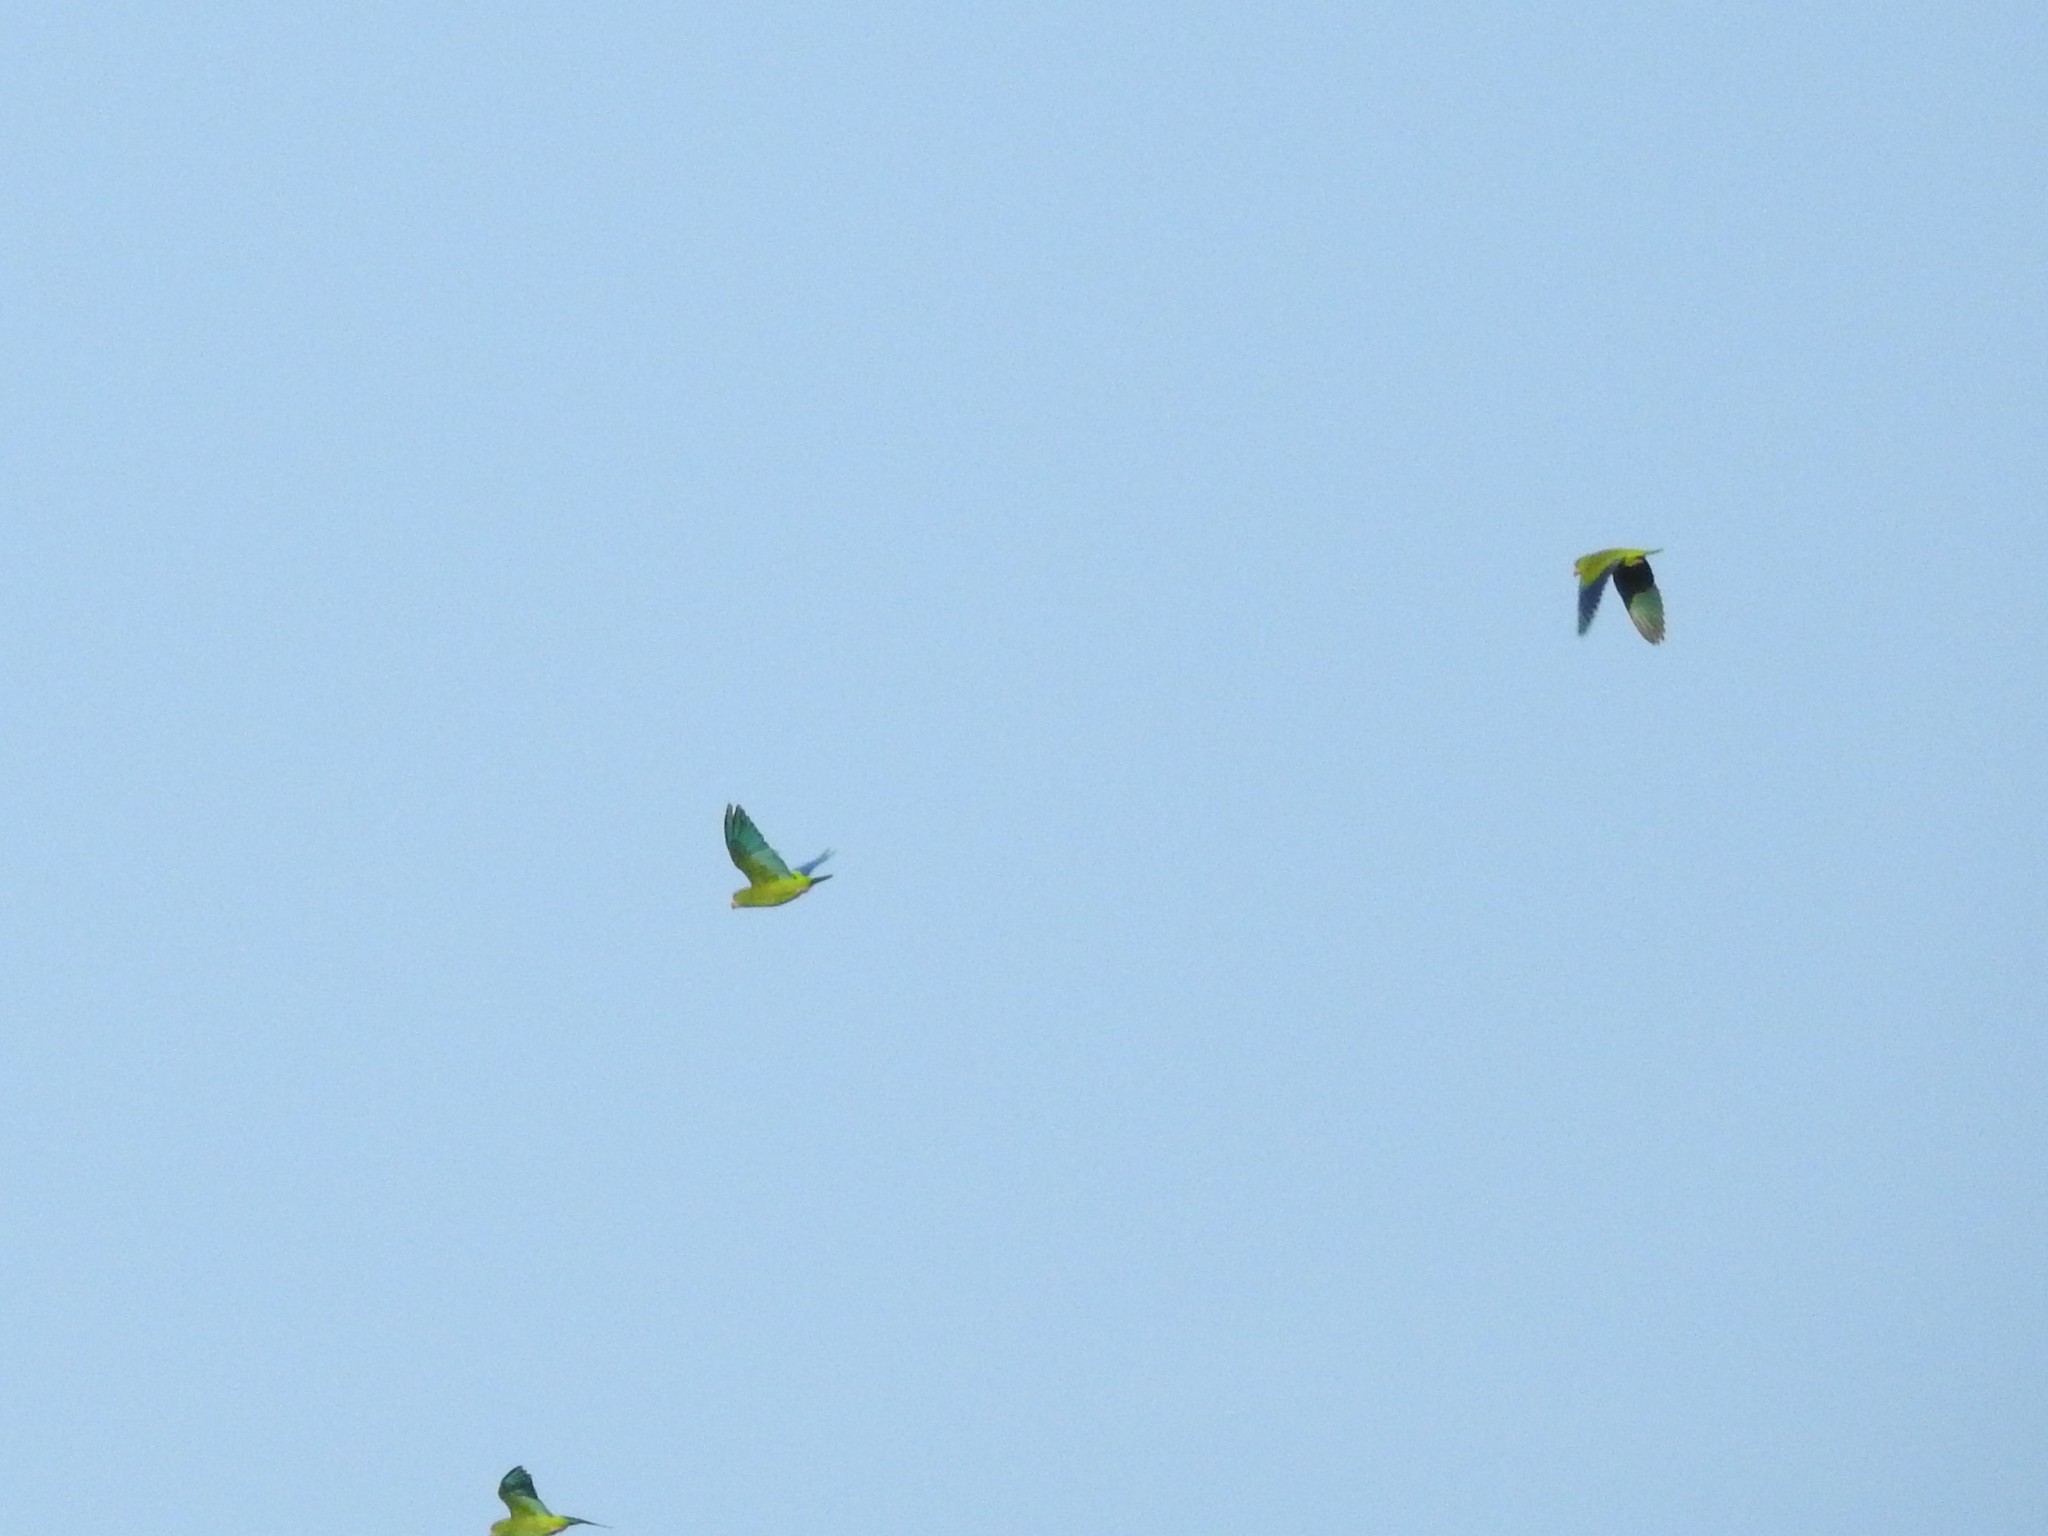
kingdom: Animalia
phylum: Chordata
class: Aves
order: Psittaciformes
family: Psittacidae
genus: Brotogeris
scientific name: Brotogeris cyanoptera
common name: Cobalt-winged parakeet
